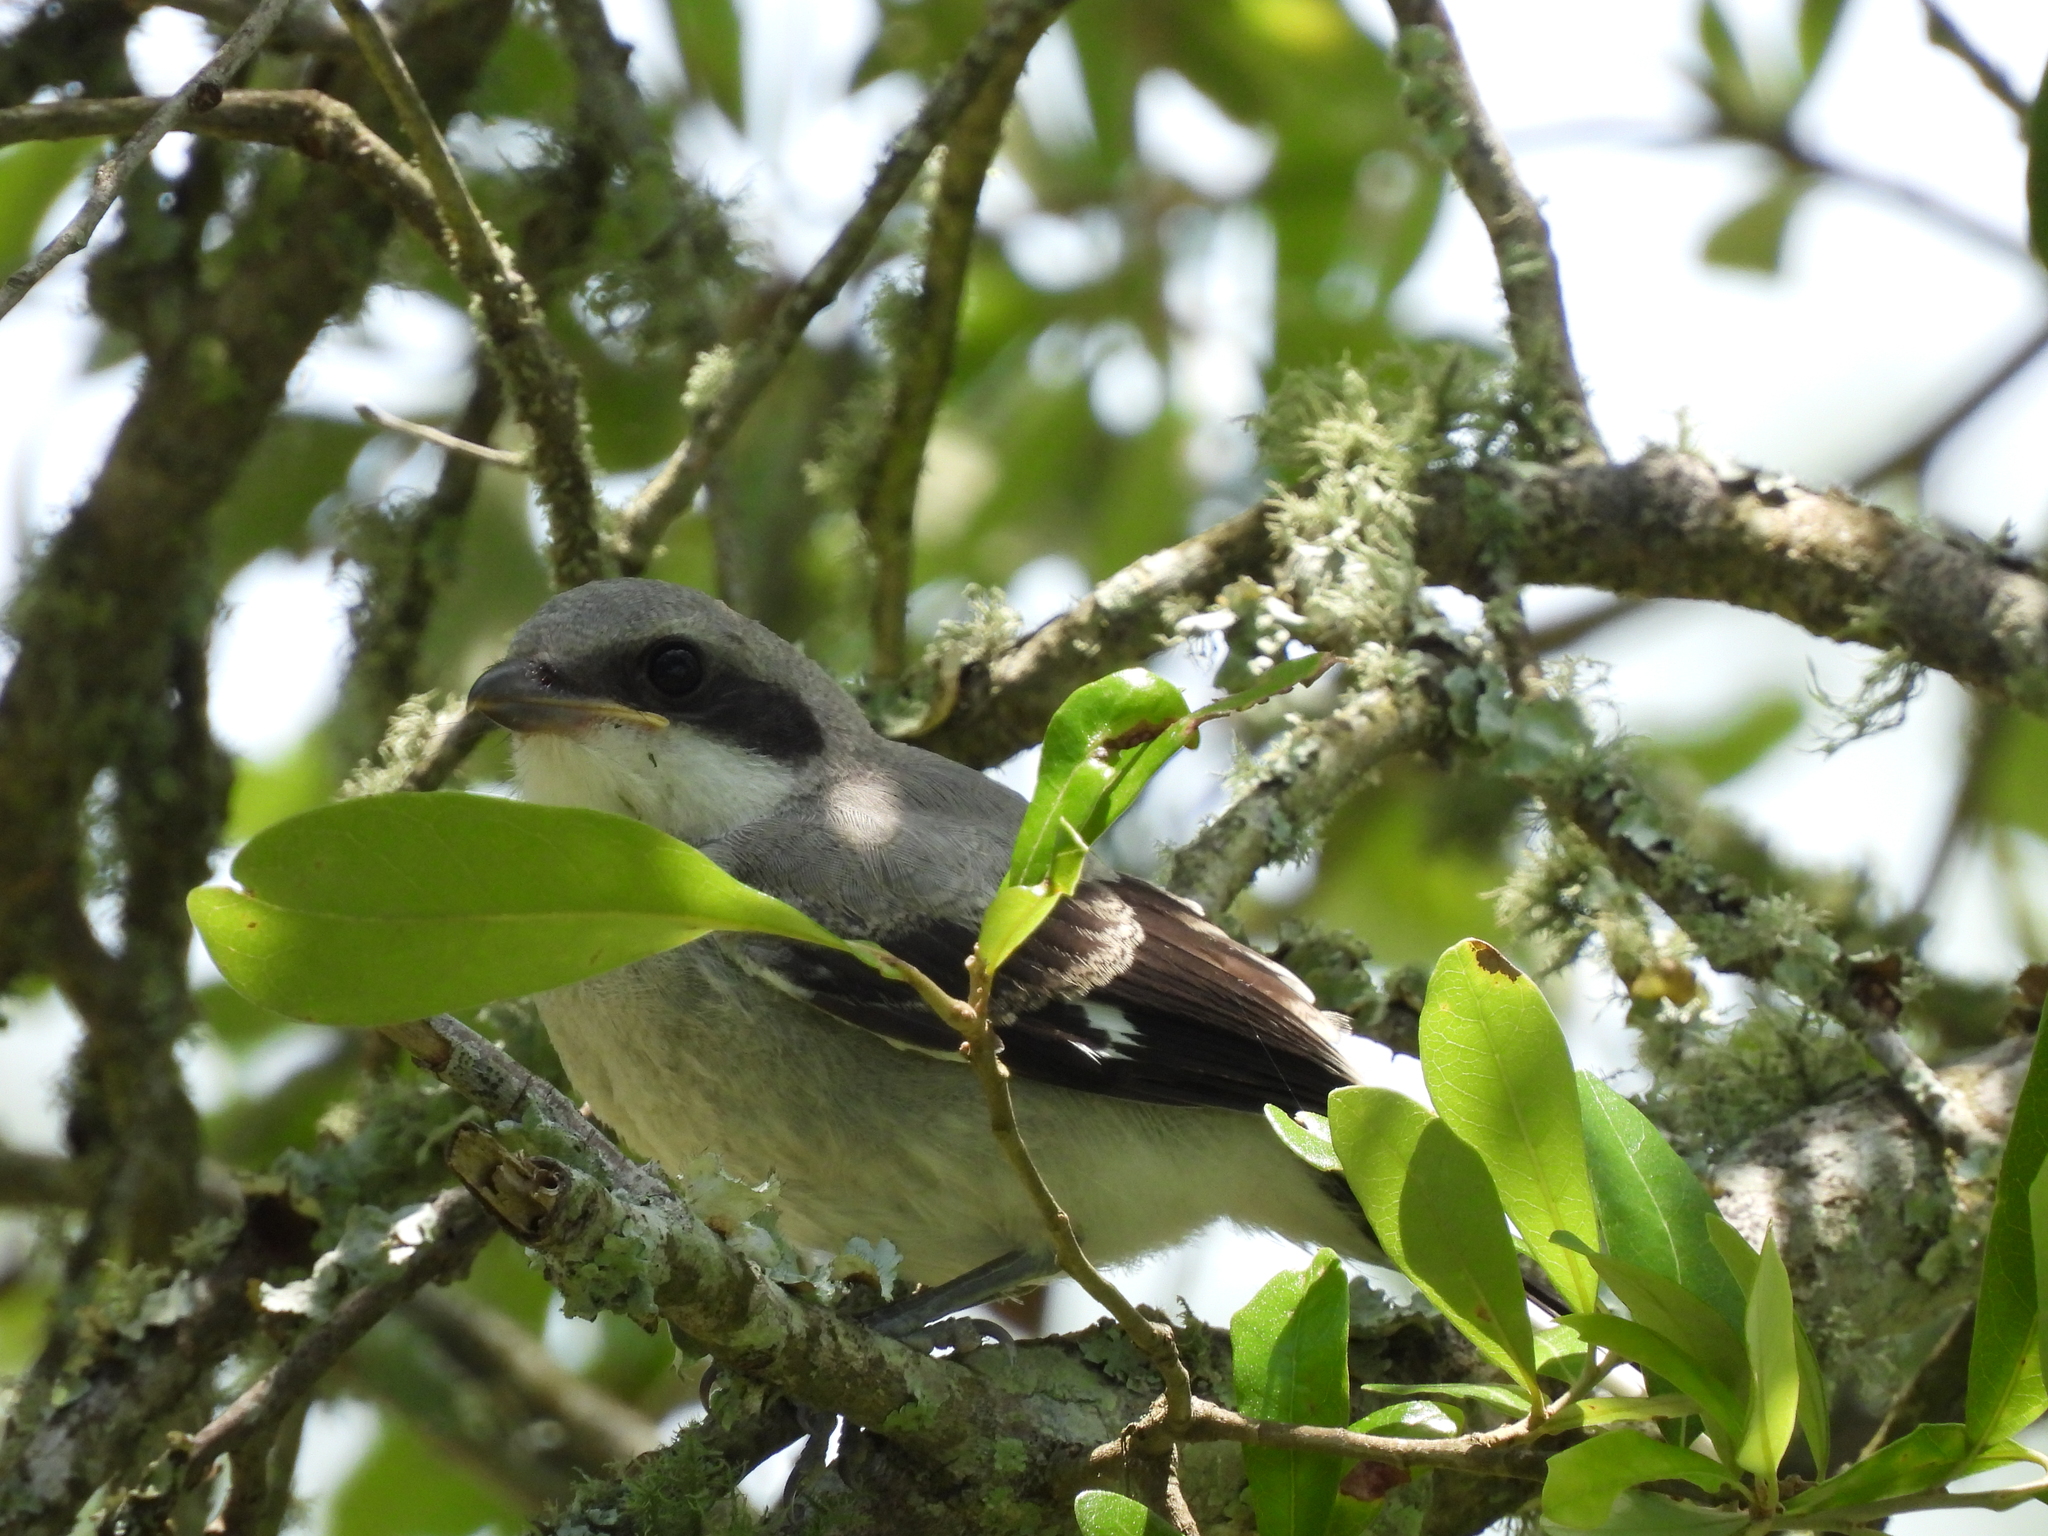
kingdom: Animalia
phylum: Chordata
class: Aves
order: Passeriformes
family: Laniidae
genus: Lanius
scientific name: Lanius ludovicianus
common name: Loggerhead shrike
